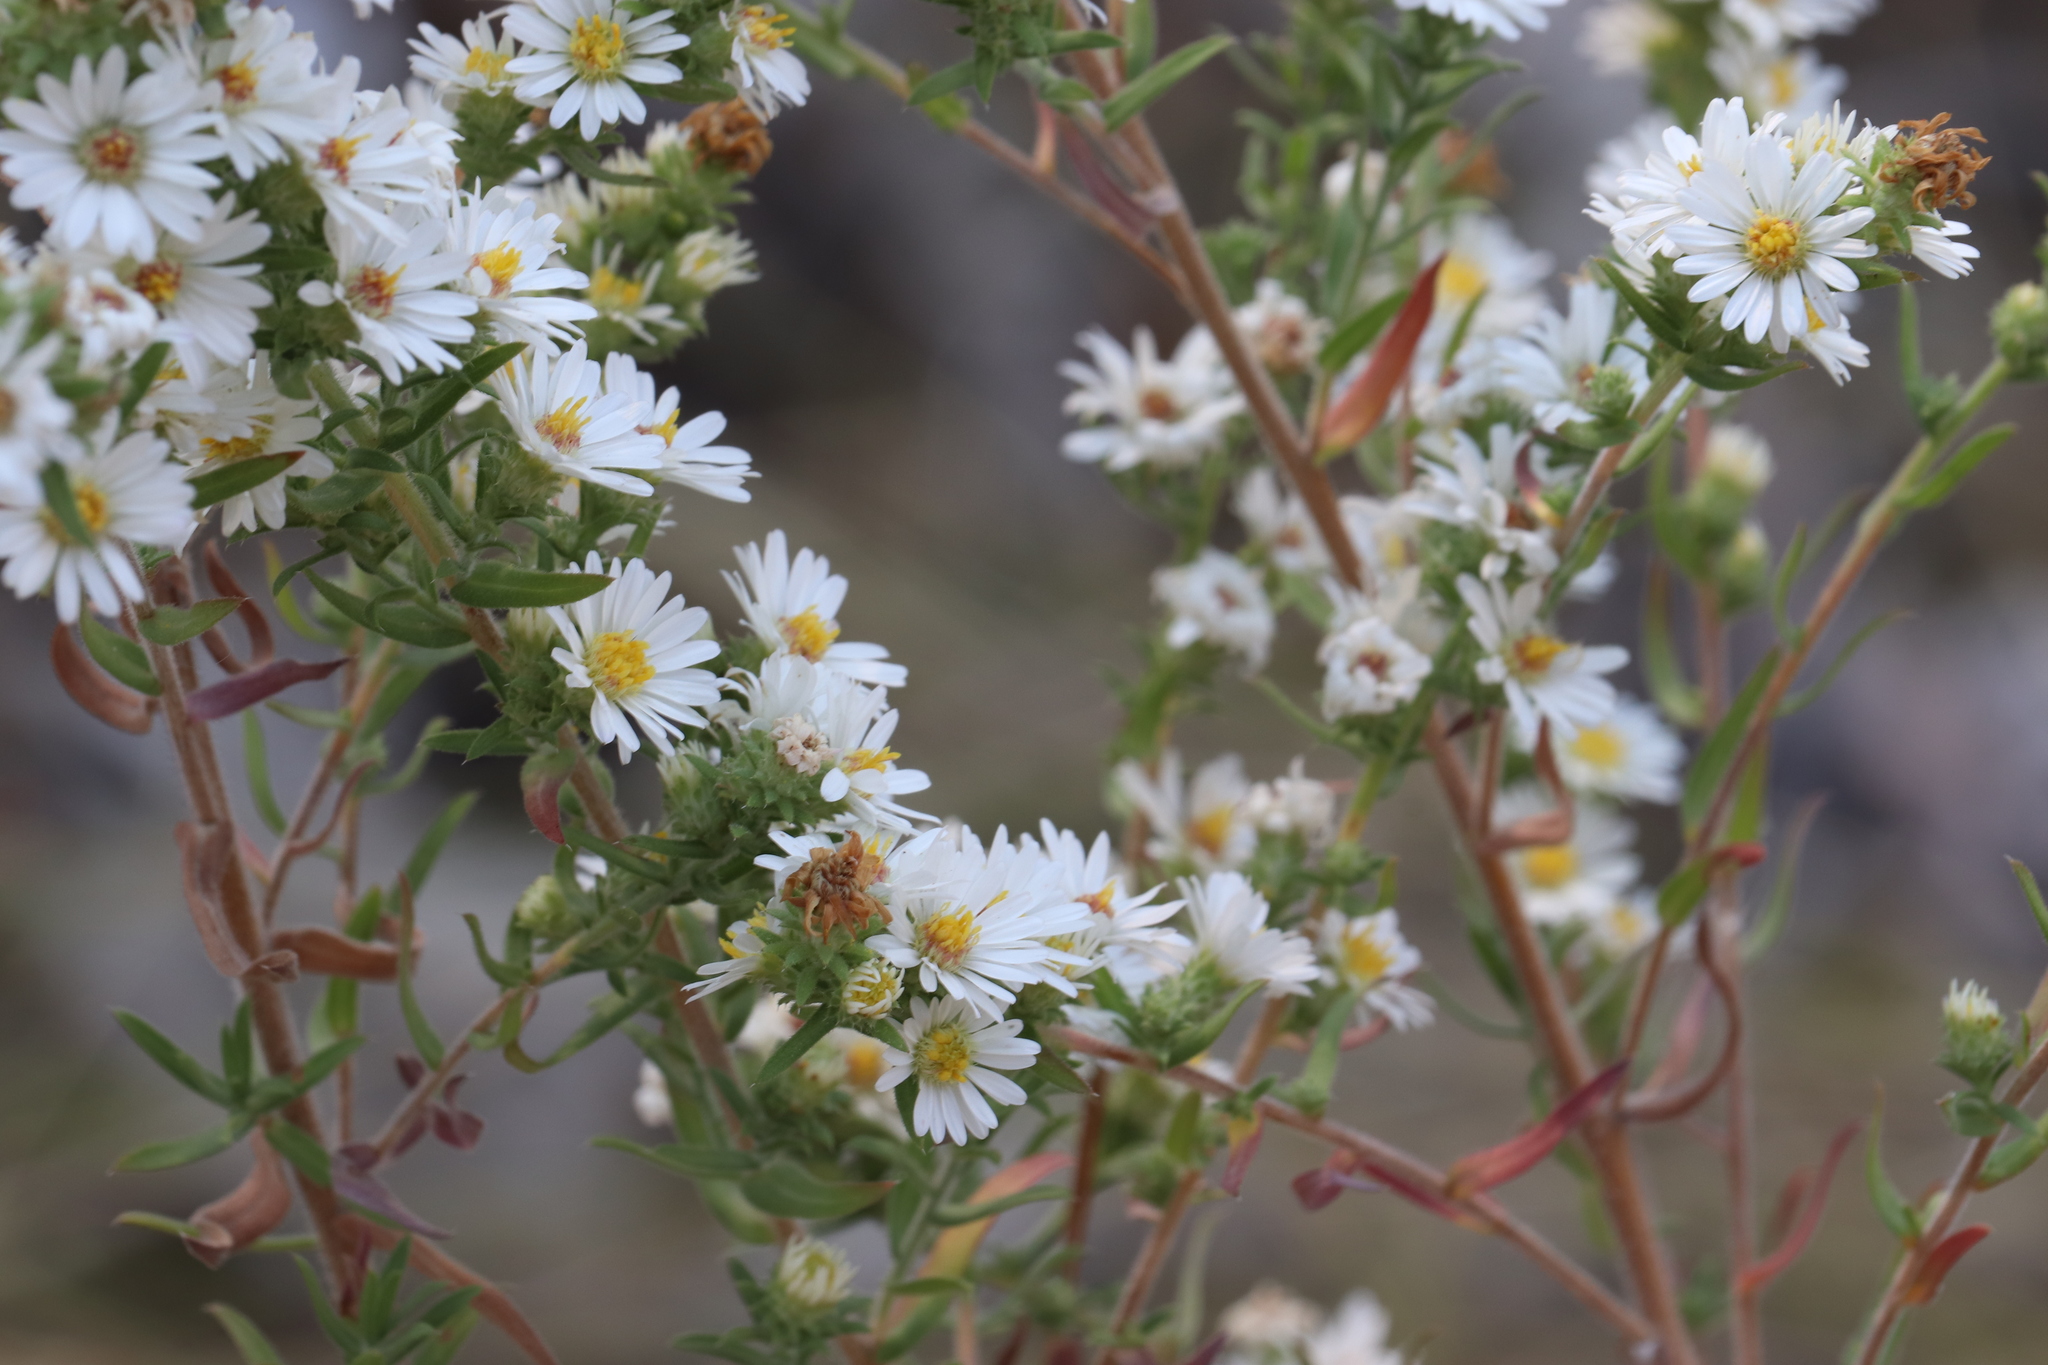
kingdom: Plantae
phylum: Tracheophyta
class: Magnoliopsida
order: Asterales
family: Asteraceae
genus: Symphyotrichum
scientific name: Symphyotrichum ericoides
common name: Heath aster
